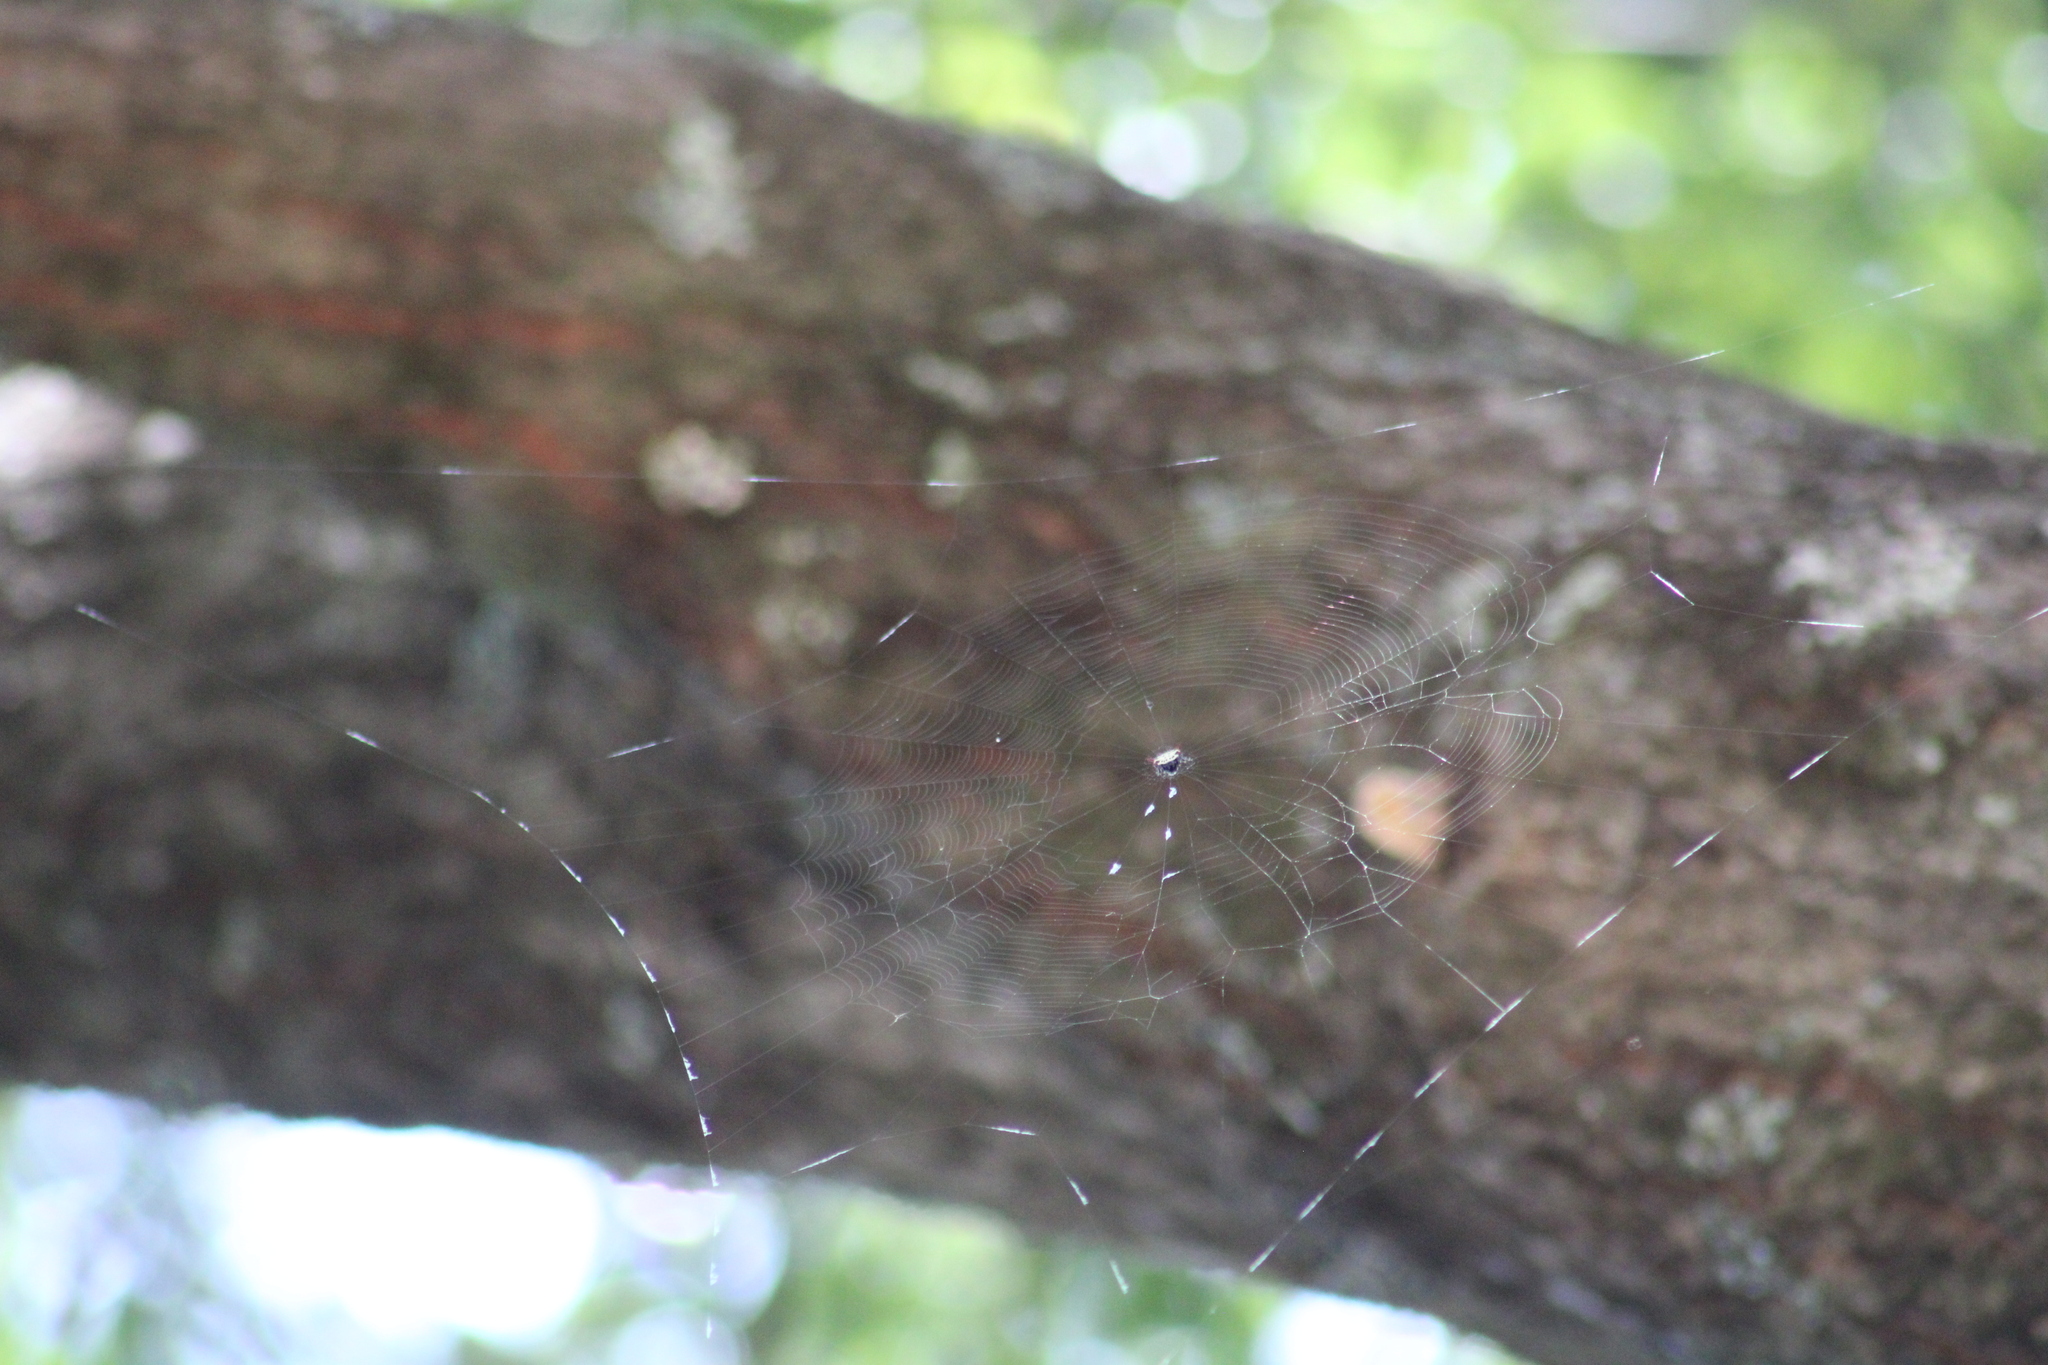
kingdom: Animalia
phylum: Arthropoda
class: Arachnida
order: Araneae
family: Araneidae
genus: Gasteracantha
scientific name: Gasteracantha cancriformis
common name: Orb weavers
